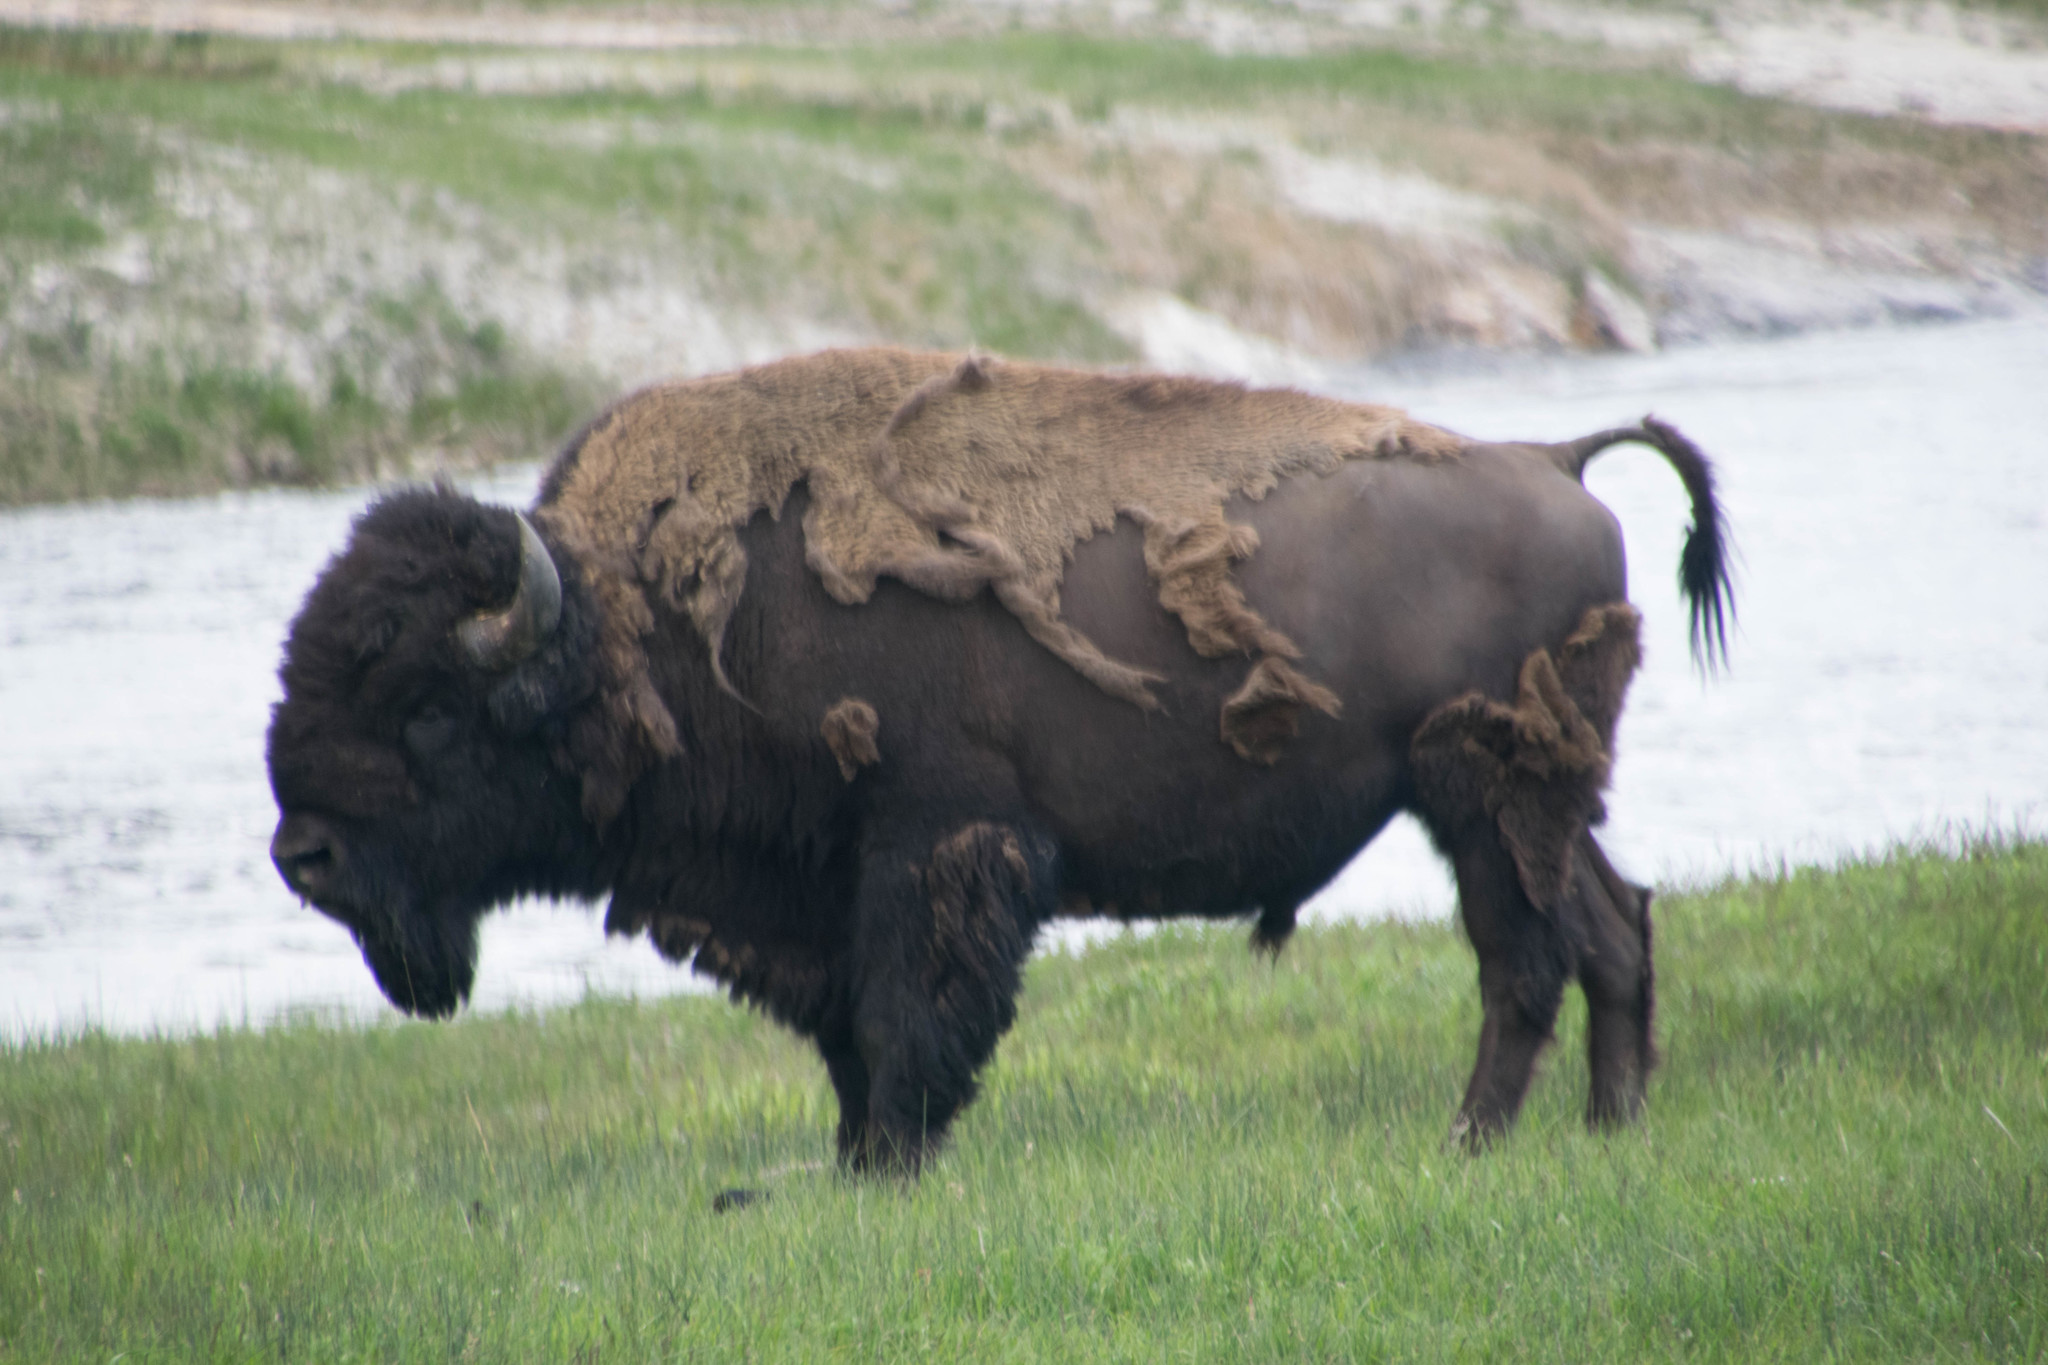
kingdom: Animalia
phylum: Chordata
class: Mammalia
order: Artiodactyla
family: Bovidae
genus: Bison
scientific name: Bison bison
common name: American bison
